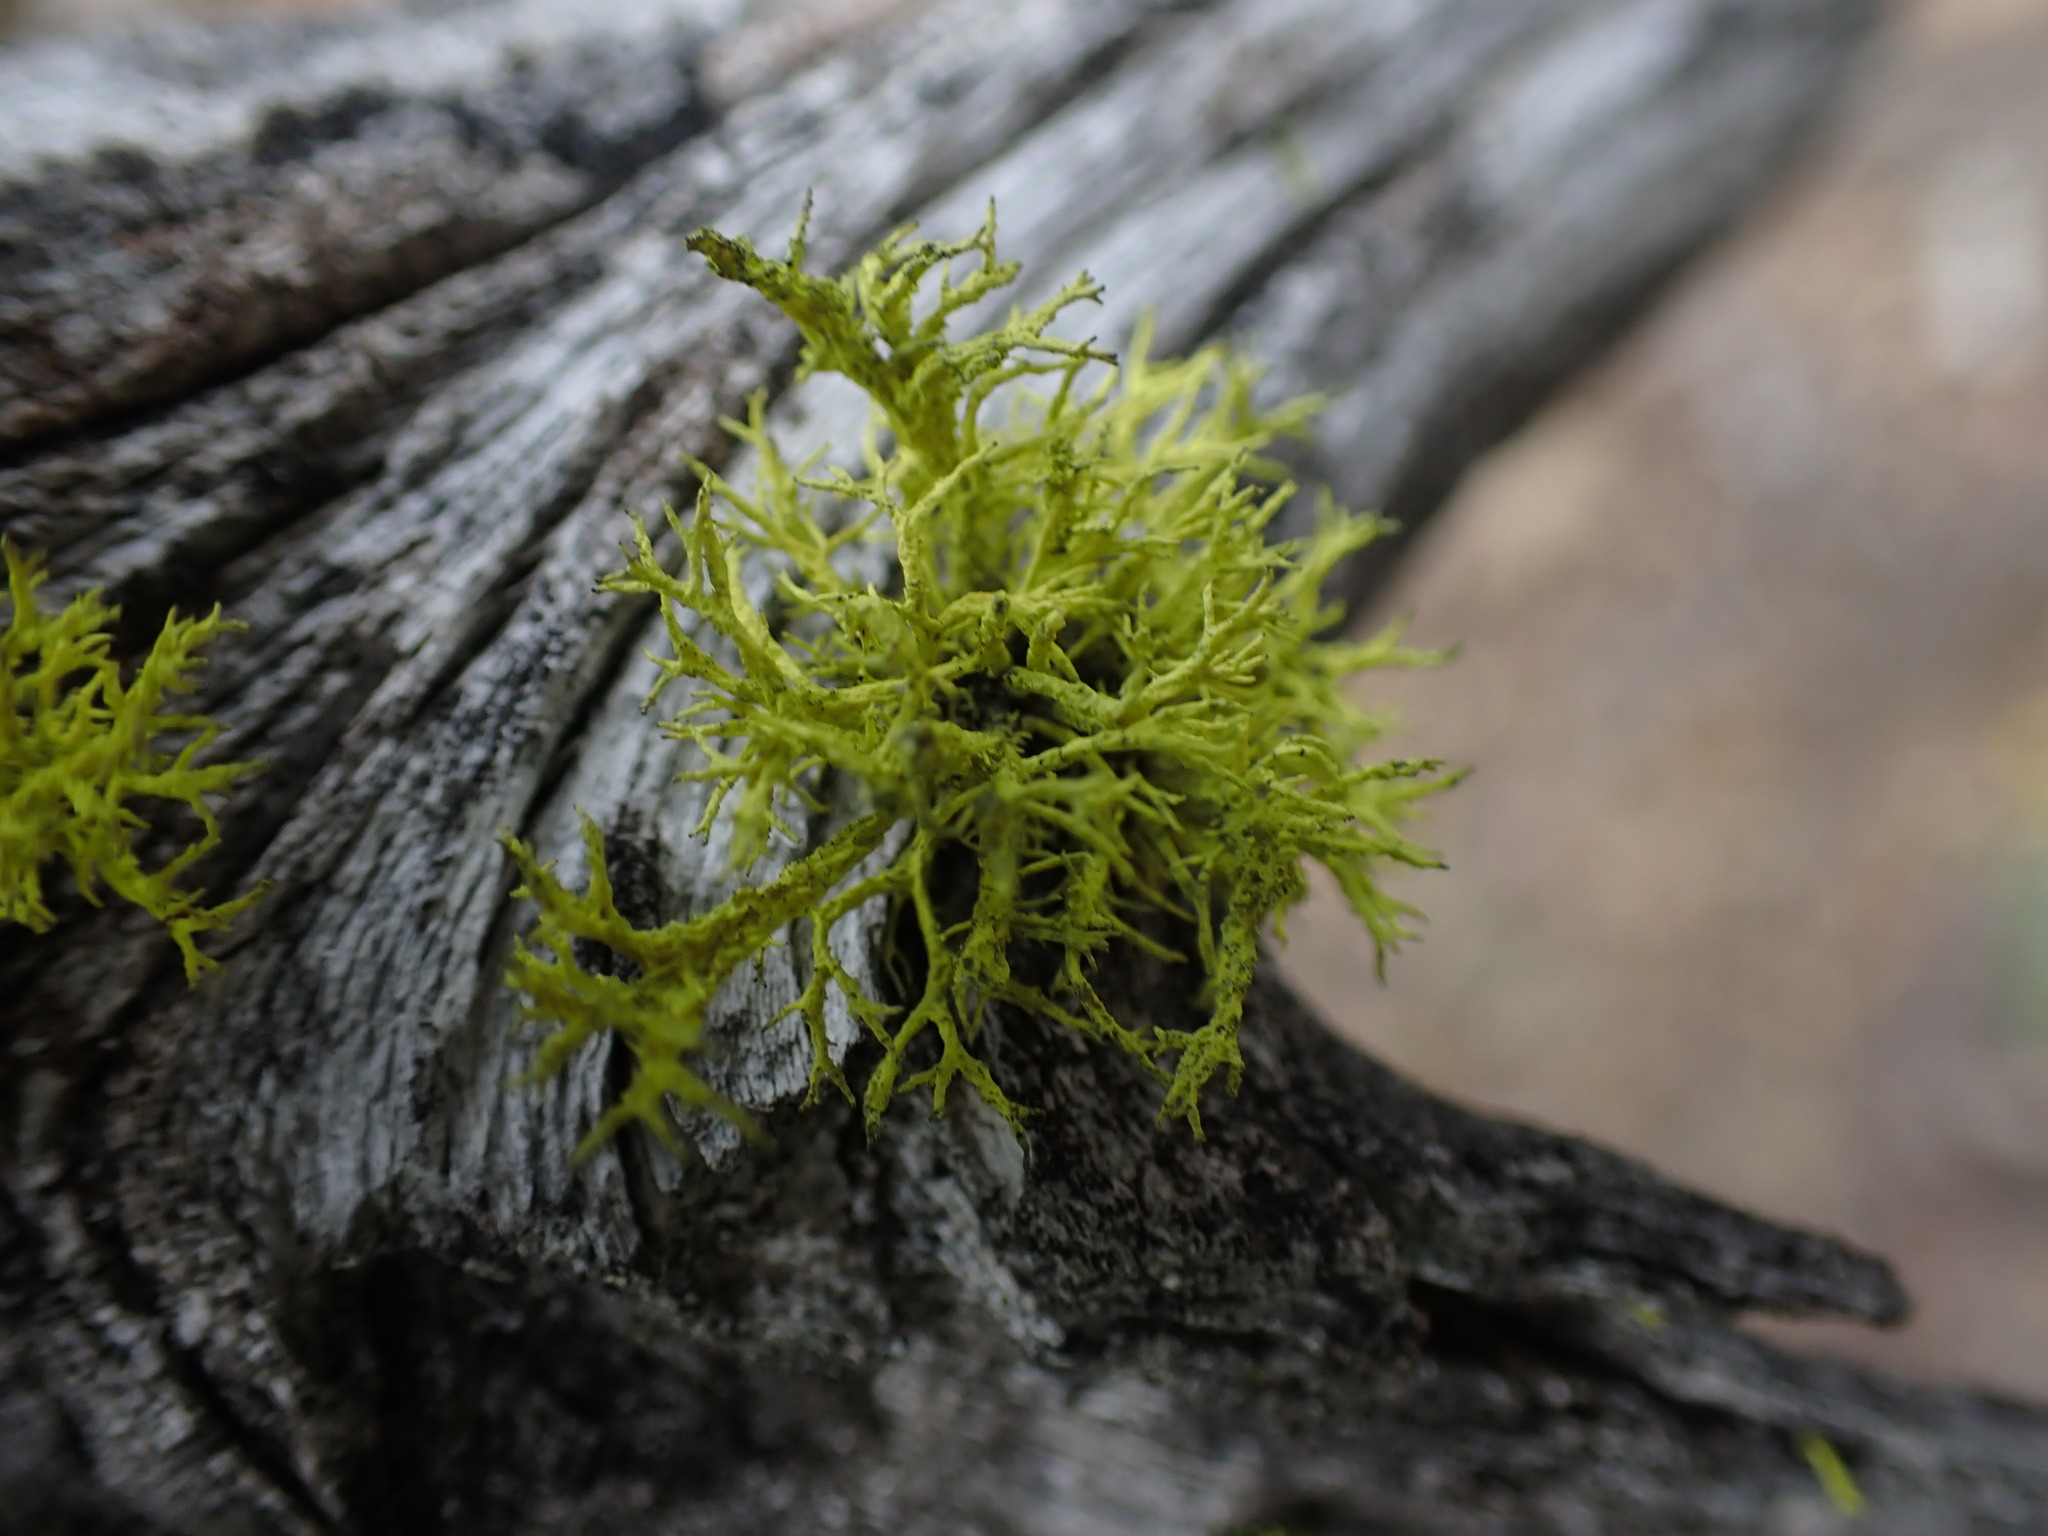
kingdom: Fungi
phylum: Ascomycota
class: Lecanoromycetes
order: Lecanorales
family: Parmeliaceae
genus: Letharia
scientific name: Letharia vulpina
